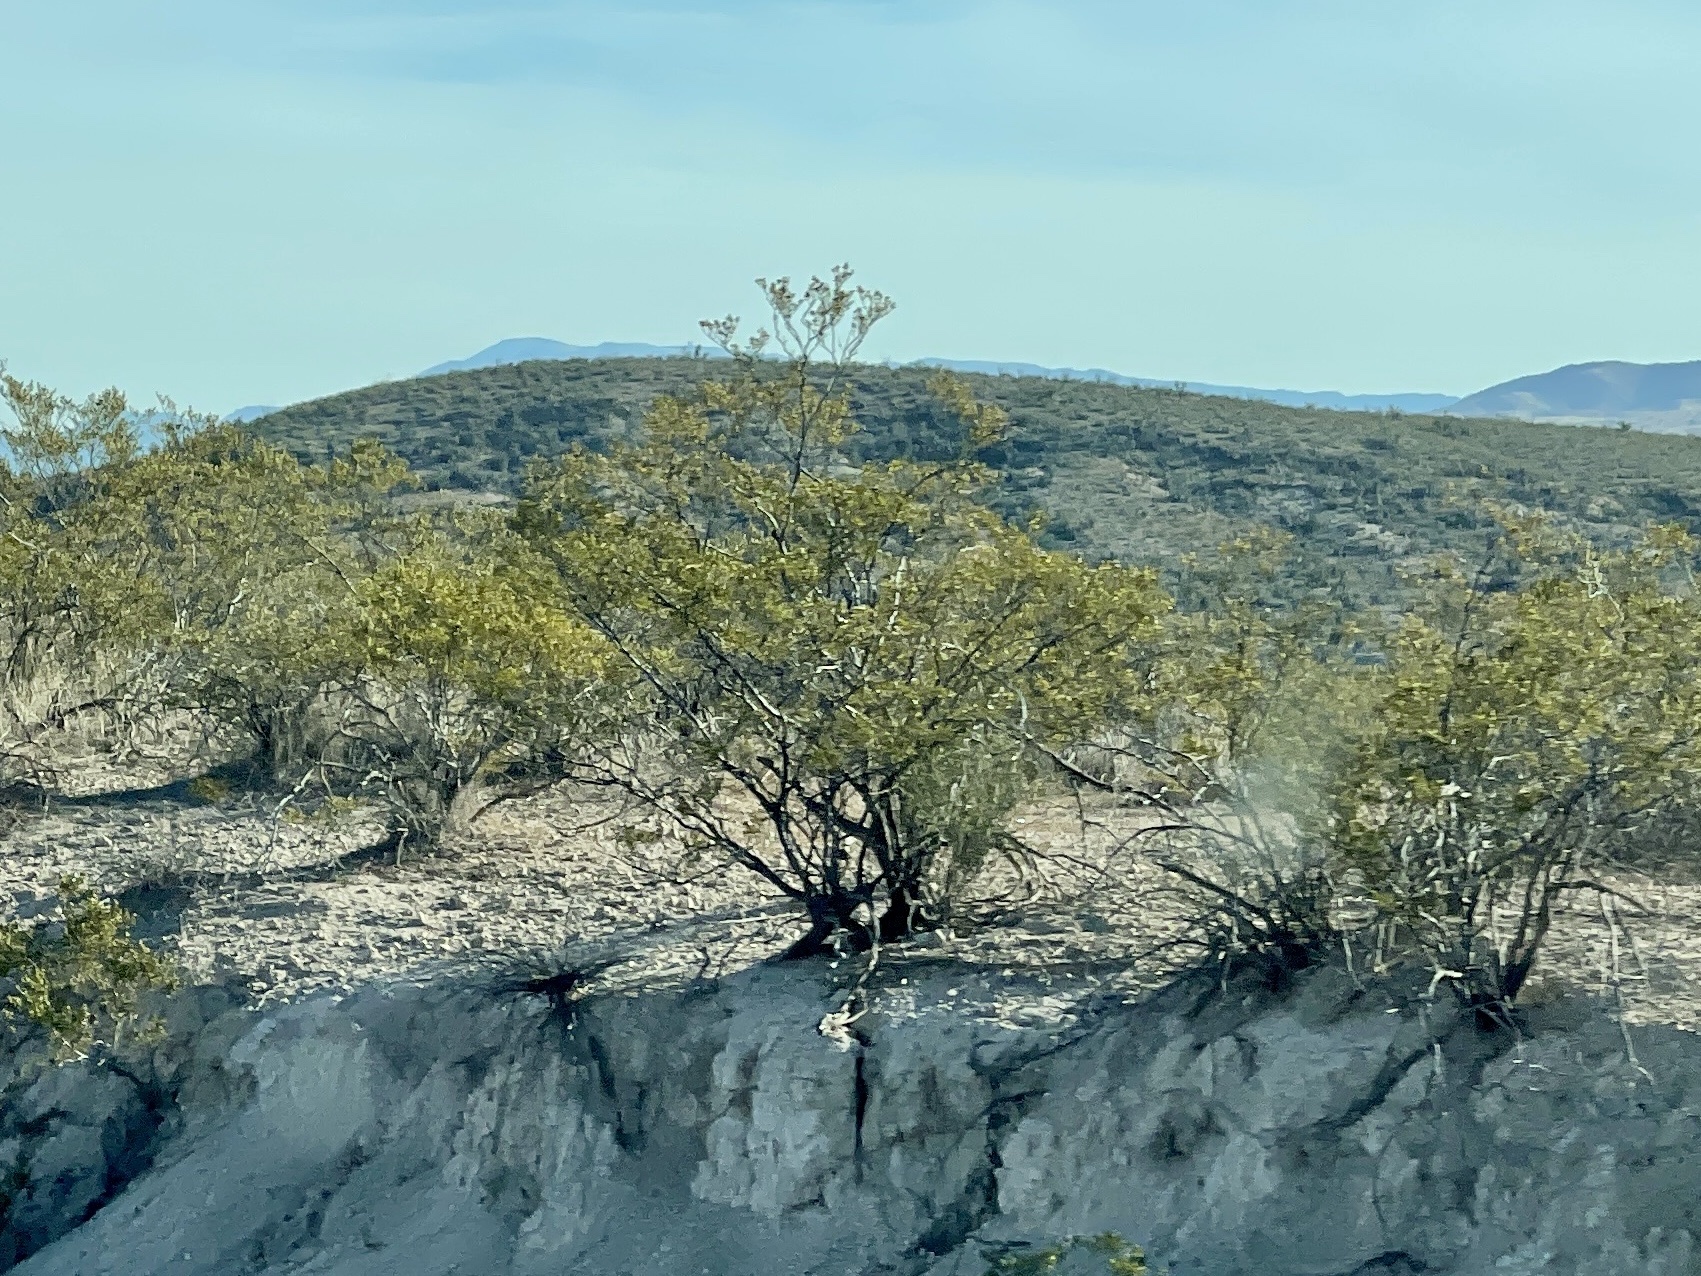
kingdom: Plantae
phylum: Tracheophyta
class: Magnoliopsida
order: Zygophyllales
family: Zygophyllaceae
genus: Larrea
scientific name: Larrea tridentata
